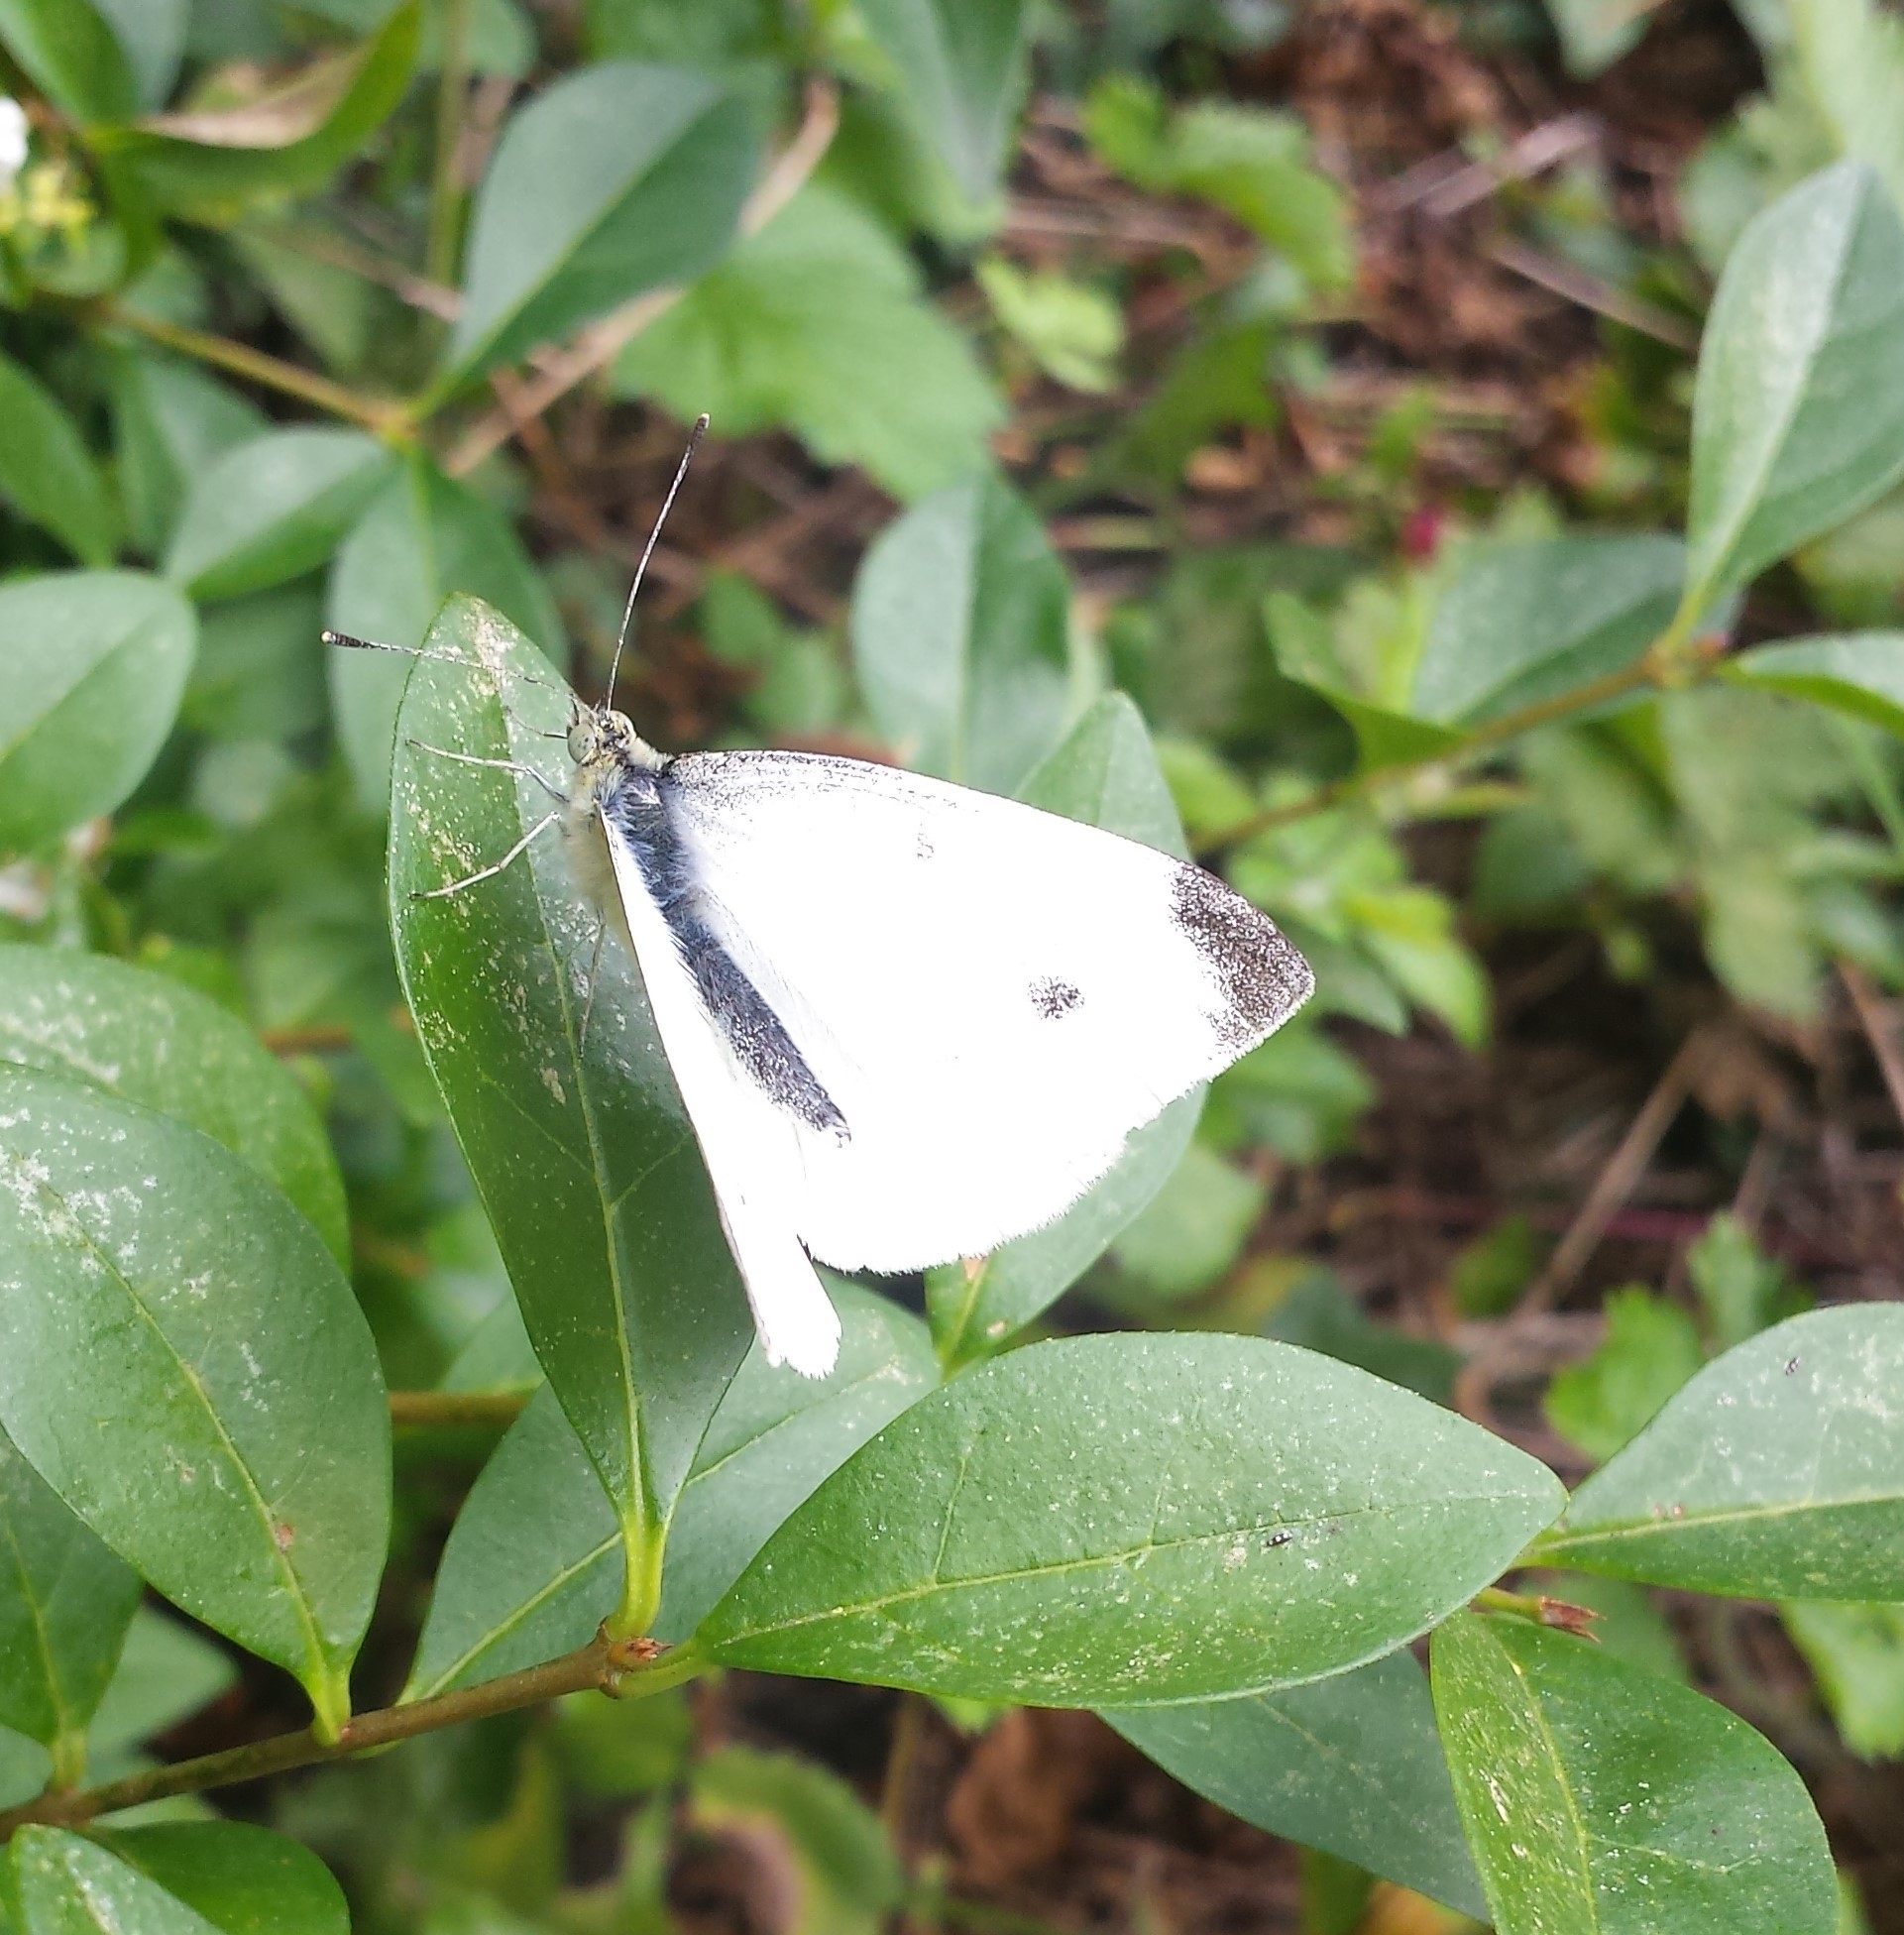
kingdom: Animalia
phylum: Arthropoda
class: Insecta
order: Lepidoptera
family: Pieridae
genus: Pieris
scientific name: Pieris rapae
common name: Small white
